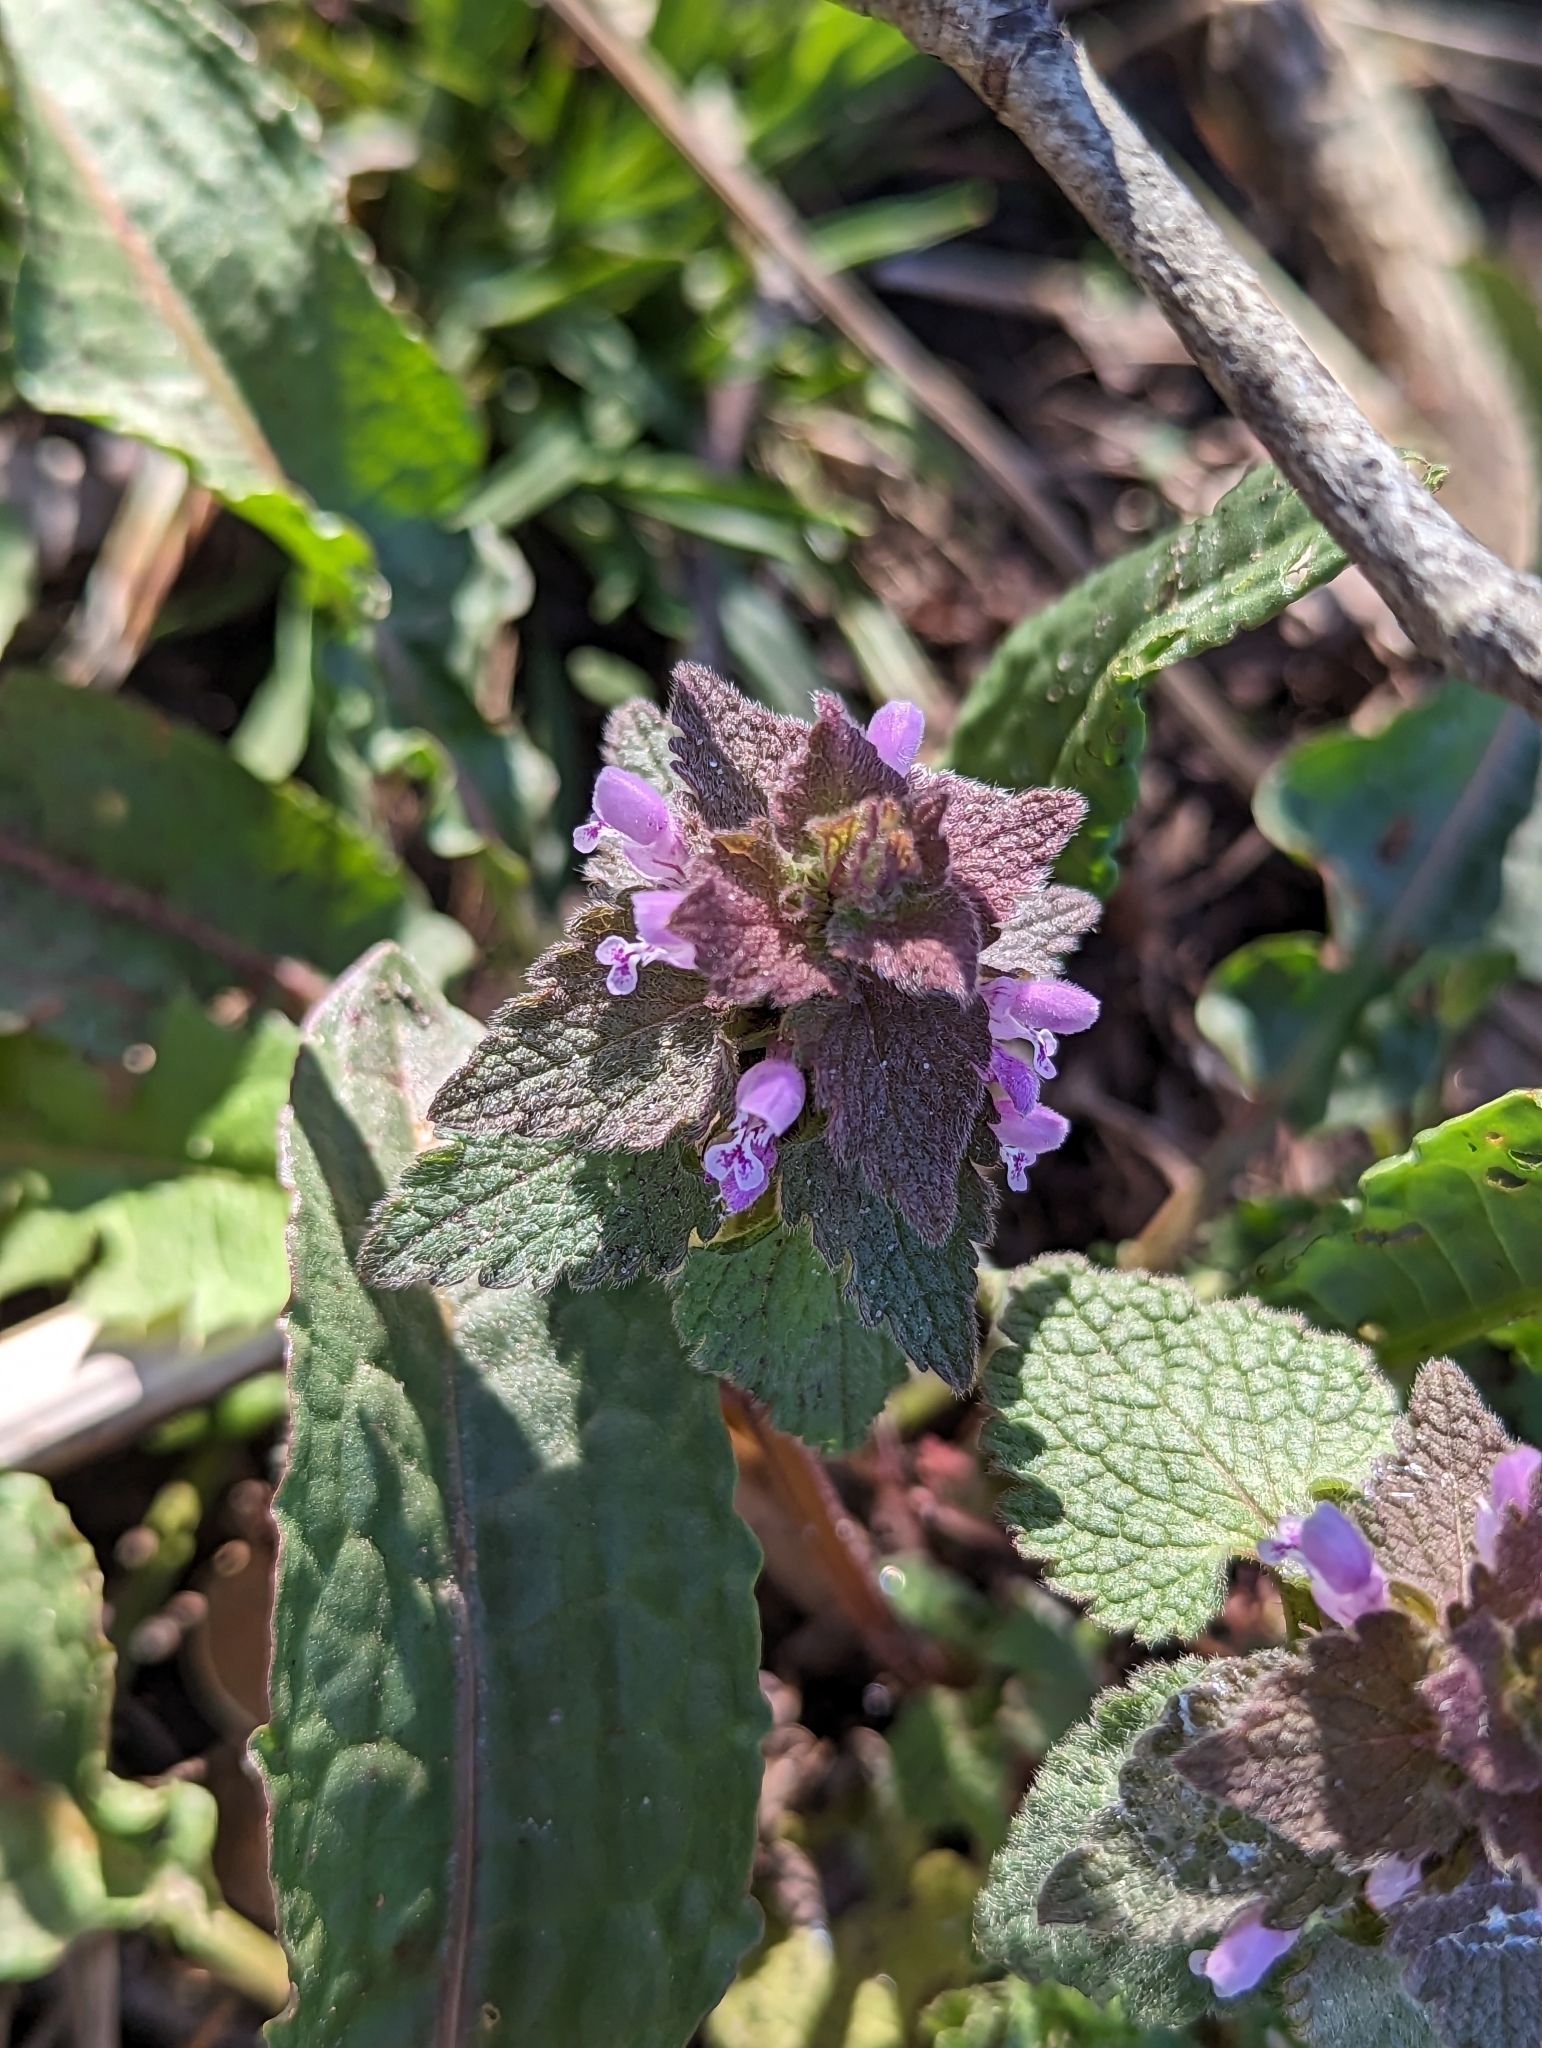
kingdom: Plantae
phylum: Tracheophyta
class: Magnoliopsida
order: Lamiales
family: Lamiaceae
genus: Lamium
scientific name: Lamium purpureum
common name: Red dead-nettle
